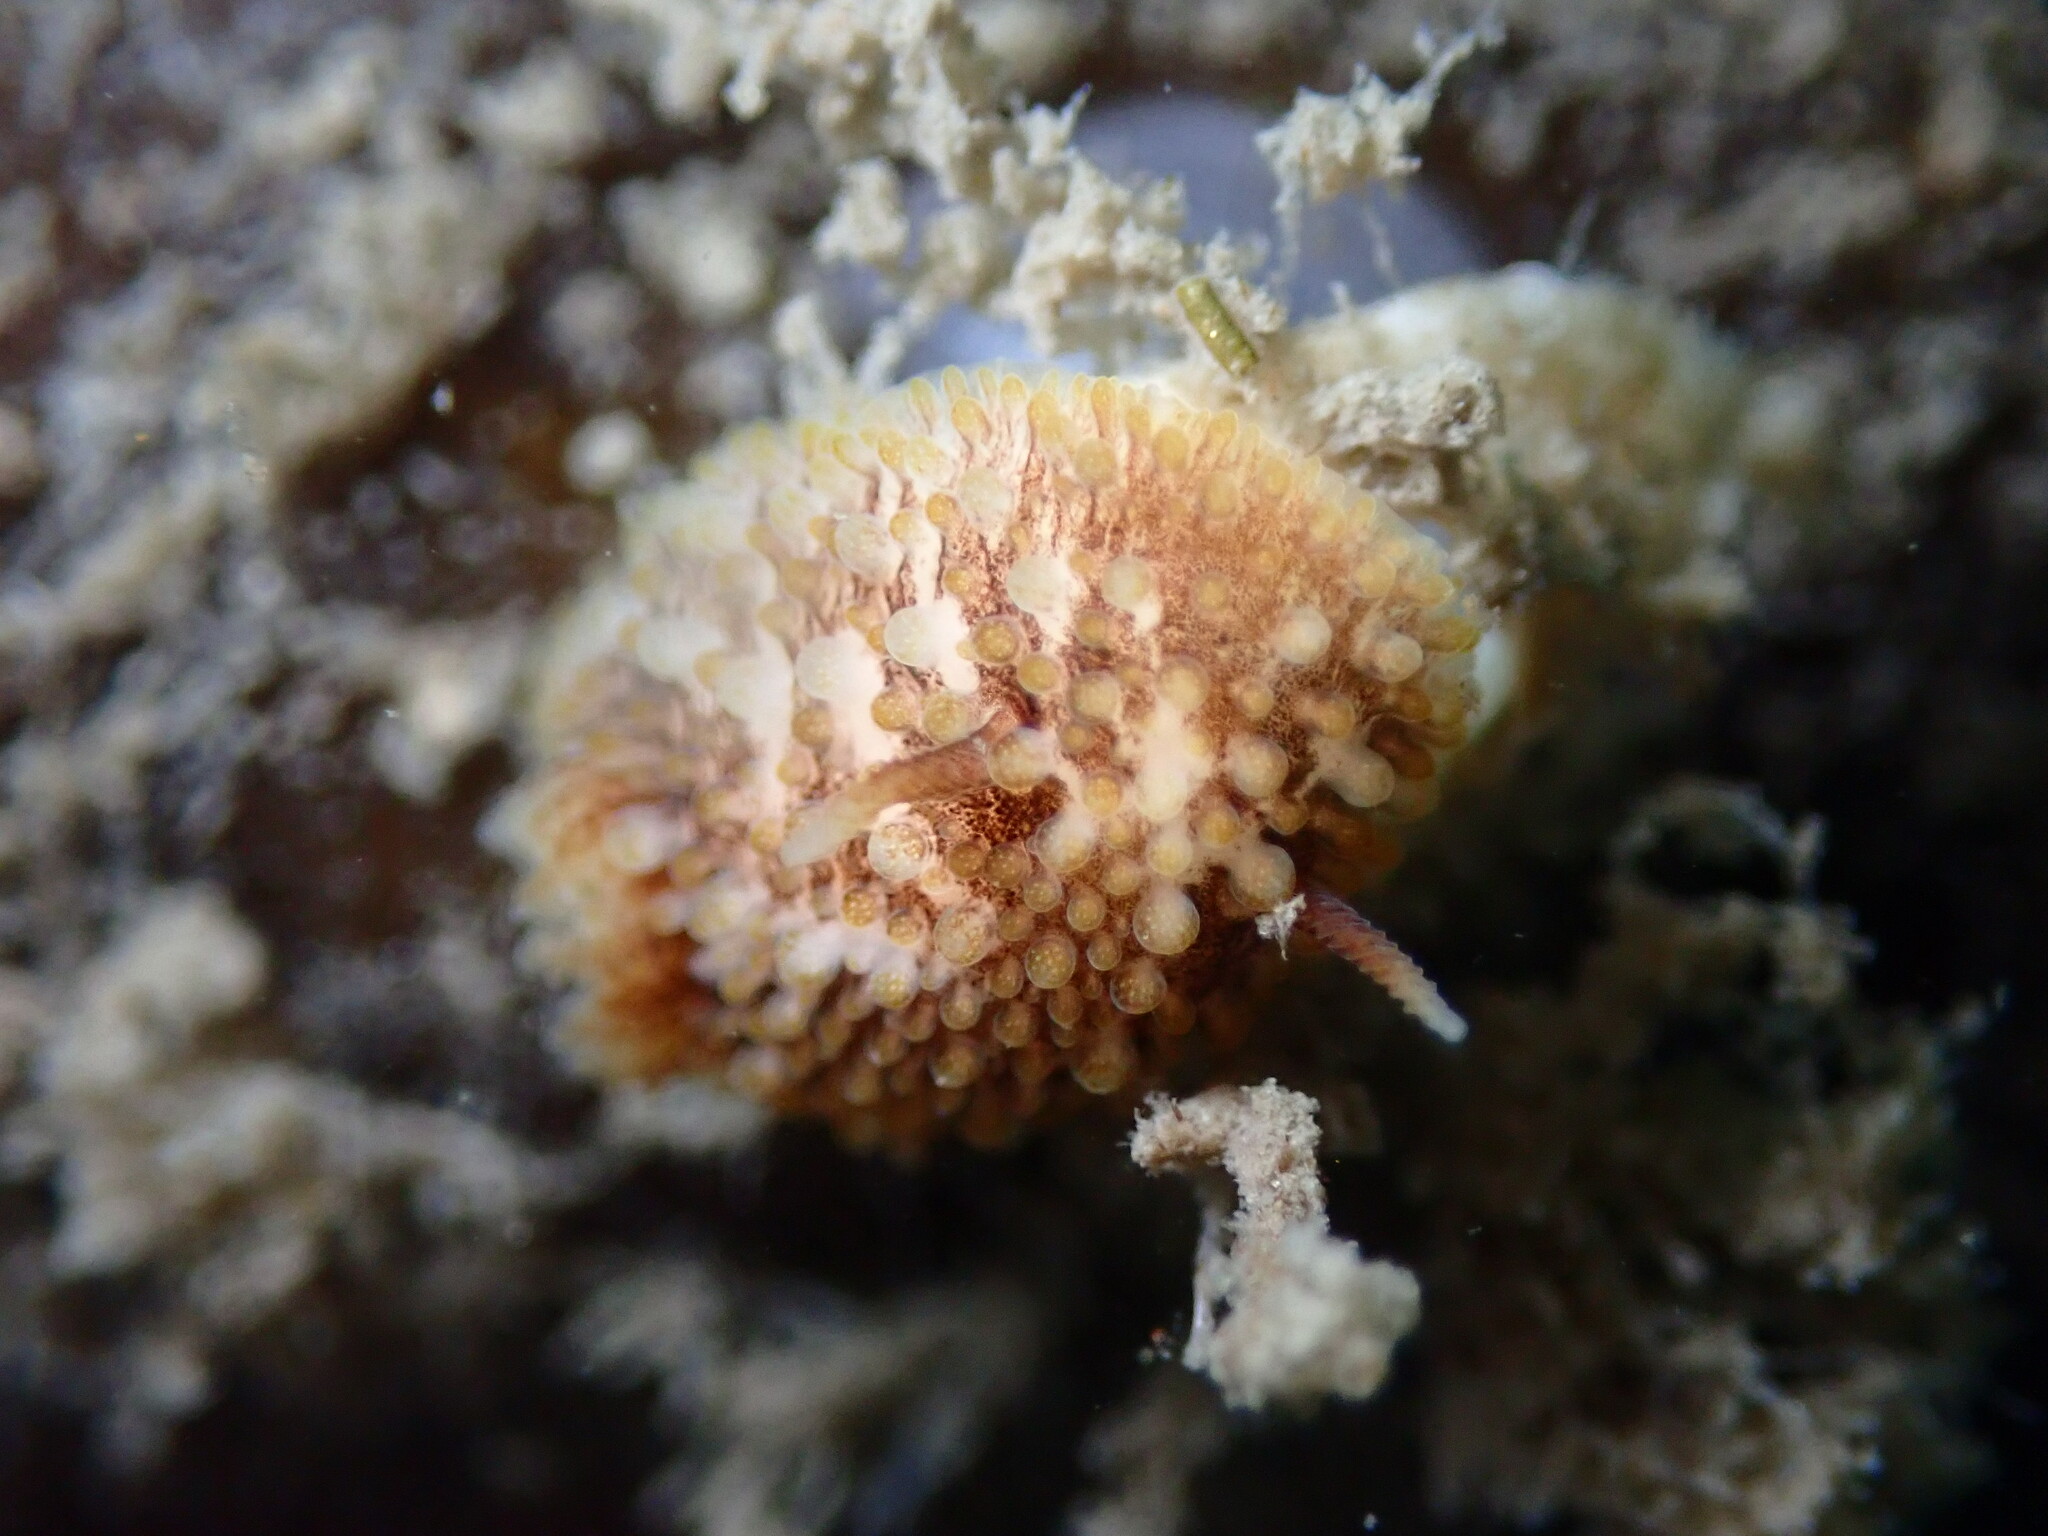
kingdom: Animalia
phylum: Mollusca
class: Gastropoda
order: Nudibranchia
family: Onchidorididae
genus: Onchidoris
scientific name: Onchidoris bilamellata
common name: Barnacle-eating onchidoris
